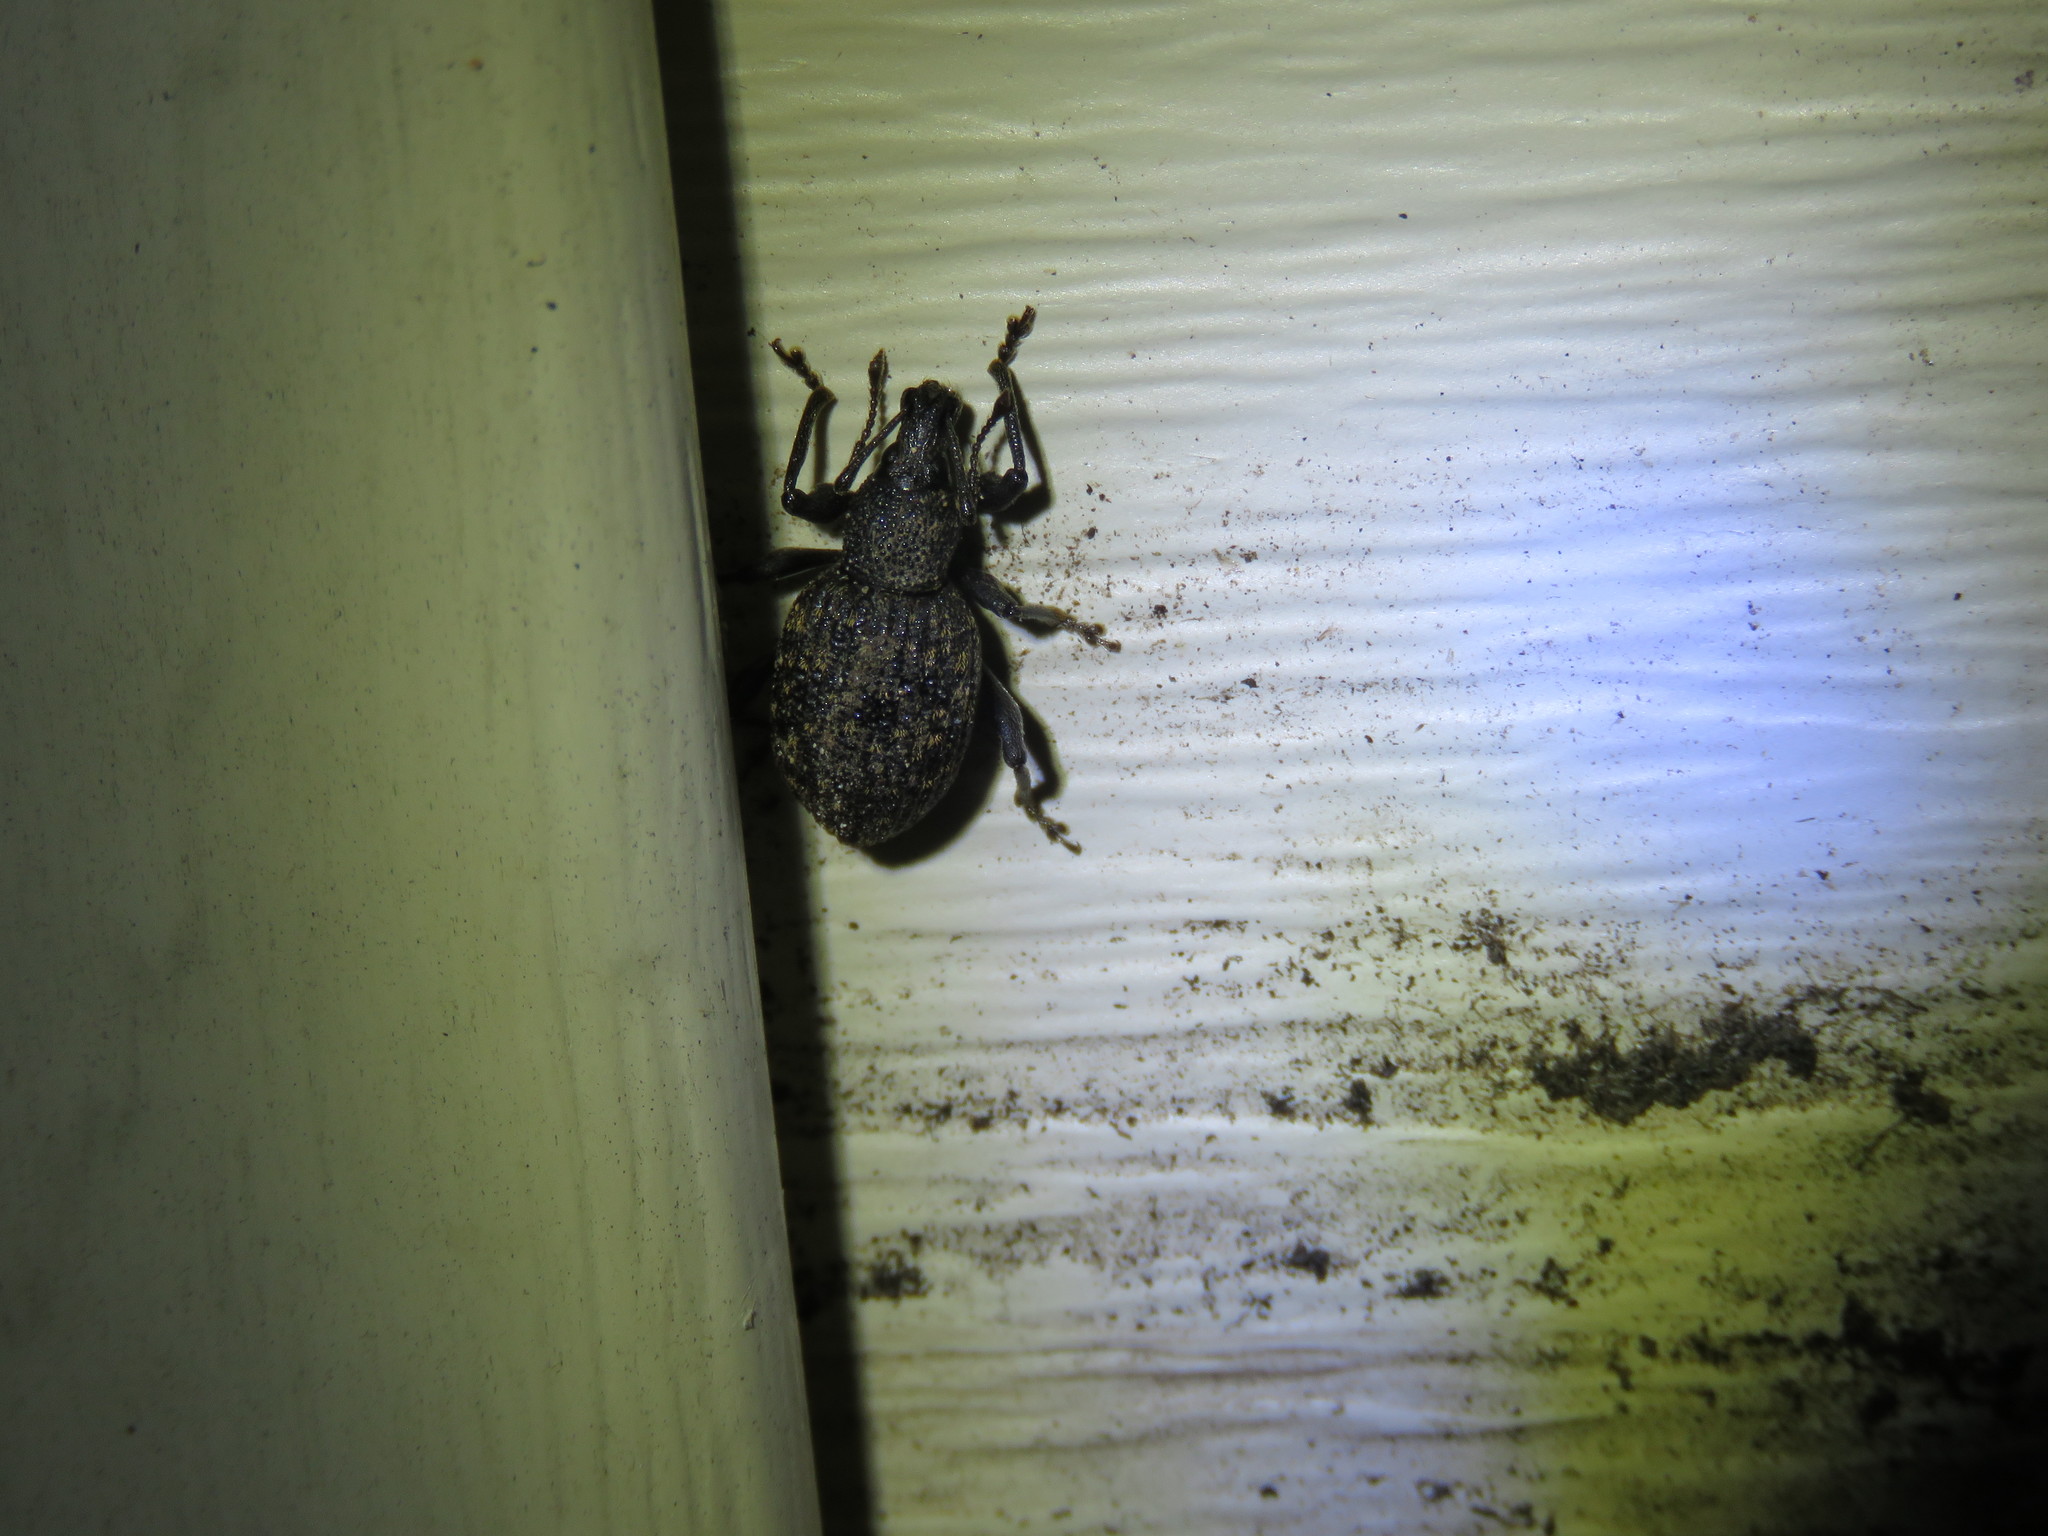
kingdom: Animalia
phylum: Arthropoda
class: Insecta
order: Coleoptera
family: Curculionidae
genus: Otiorhynchus
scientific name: Otiorhynchus sulcatus
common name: Black vine weevil
